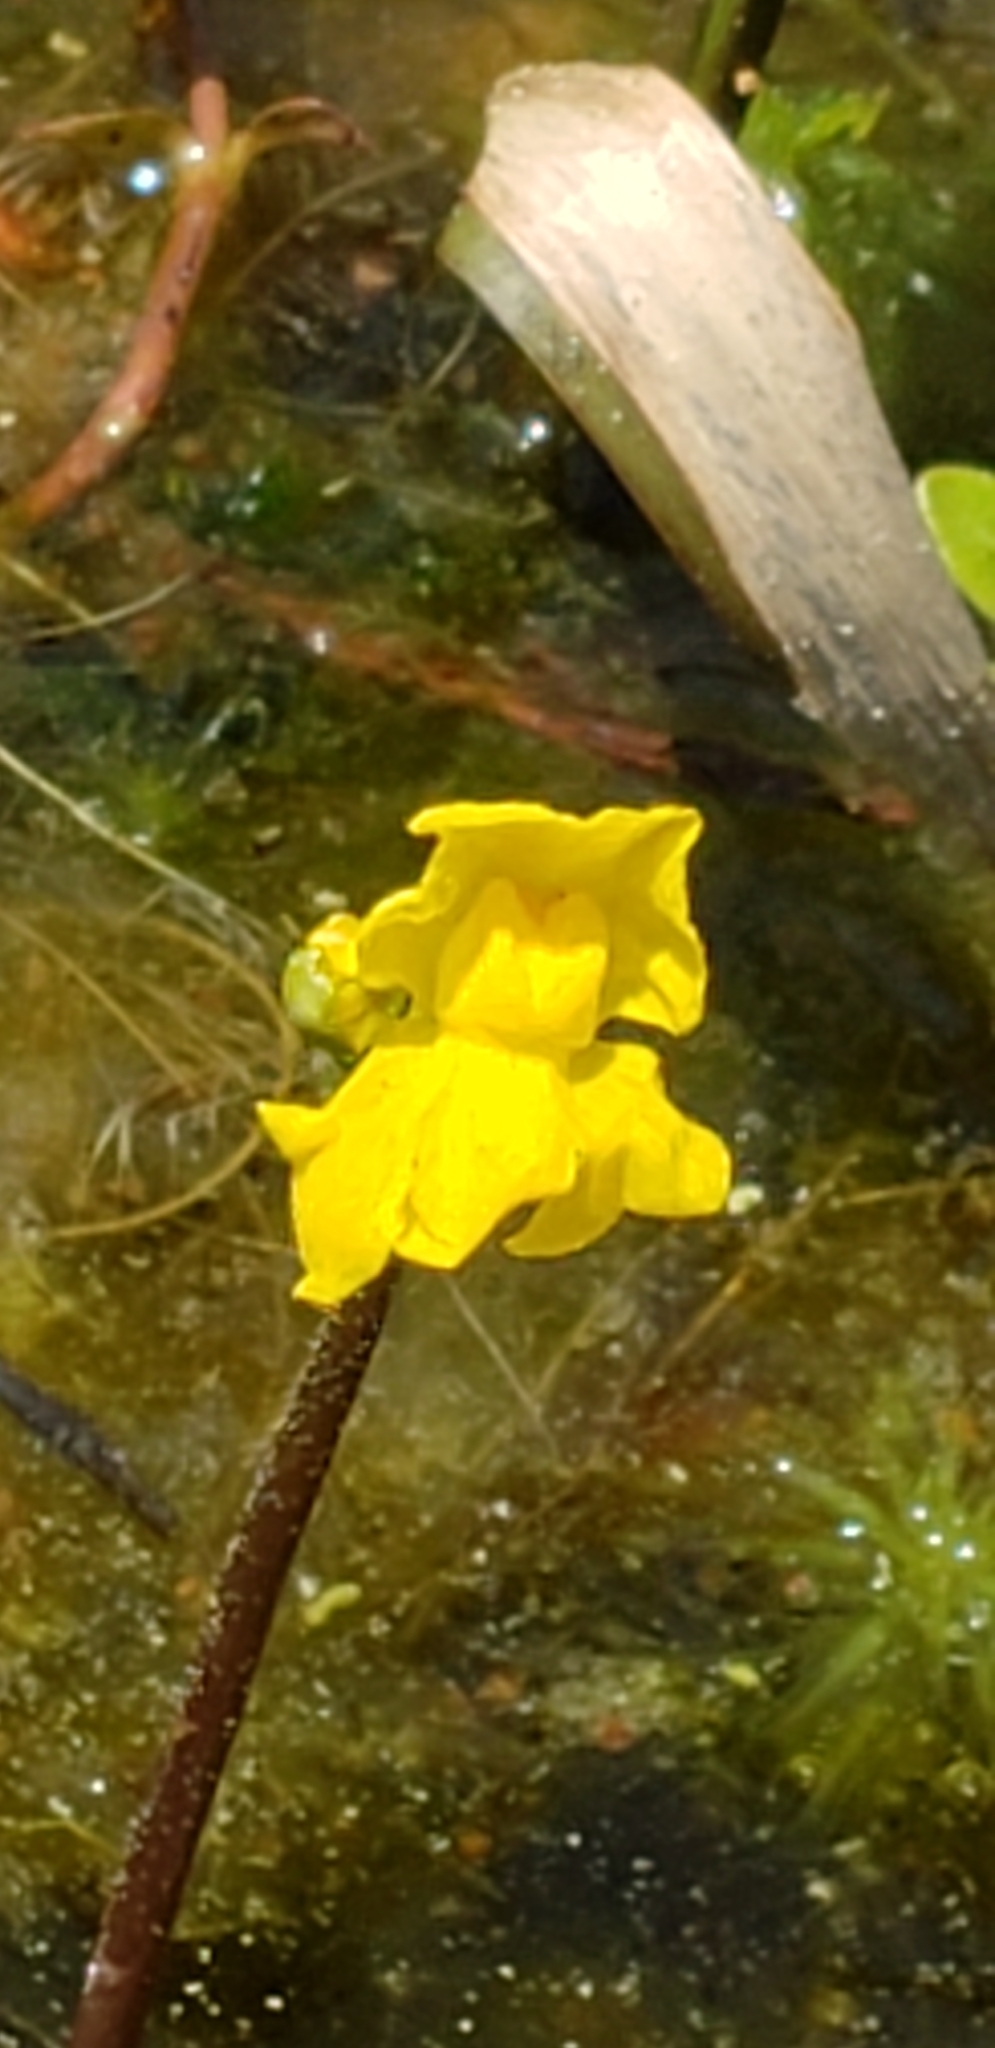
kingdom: Plantae
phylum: Tracheophyta
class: Magnoliopsida
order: Lamiales
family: Lentibulariaceae
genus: Utricularia
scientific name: Utricularia radiata
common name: Floating bladderwort
